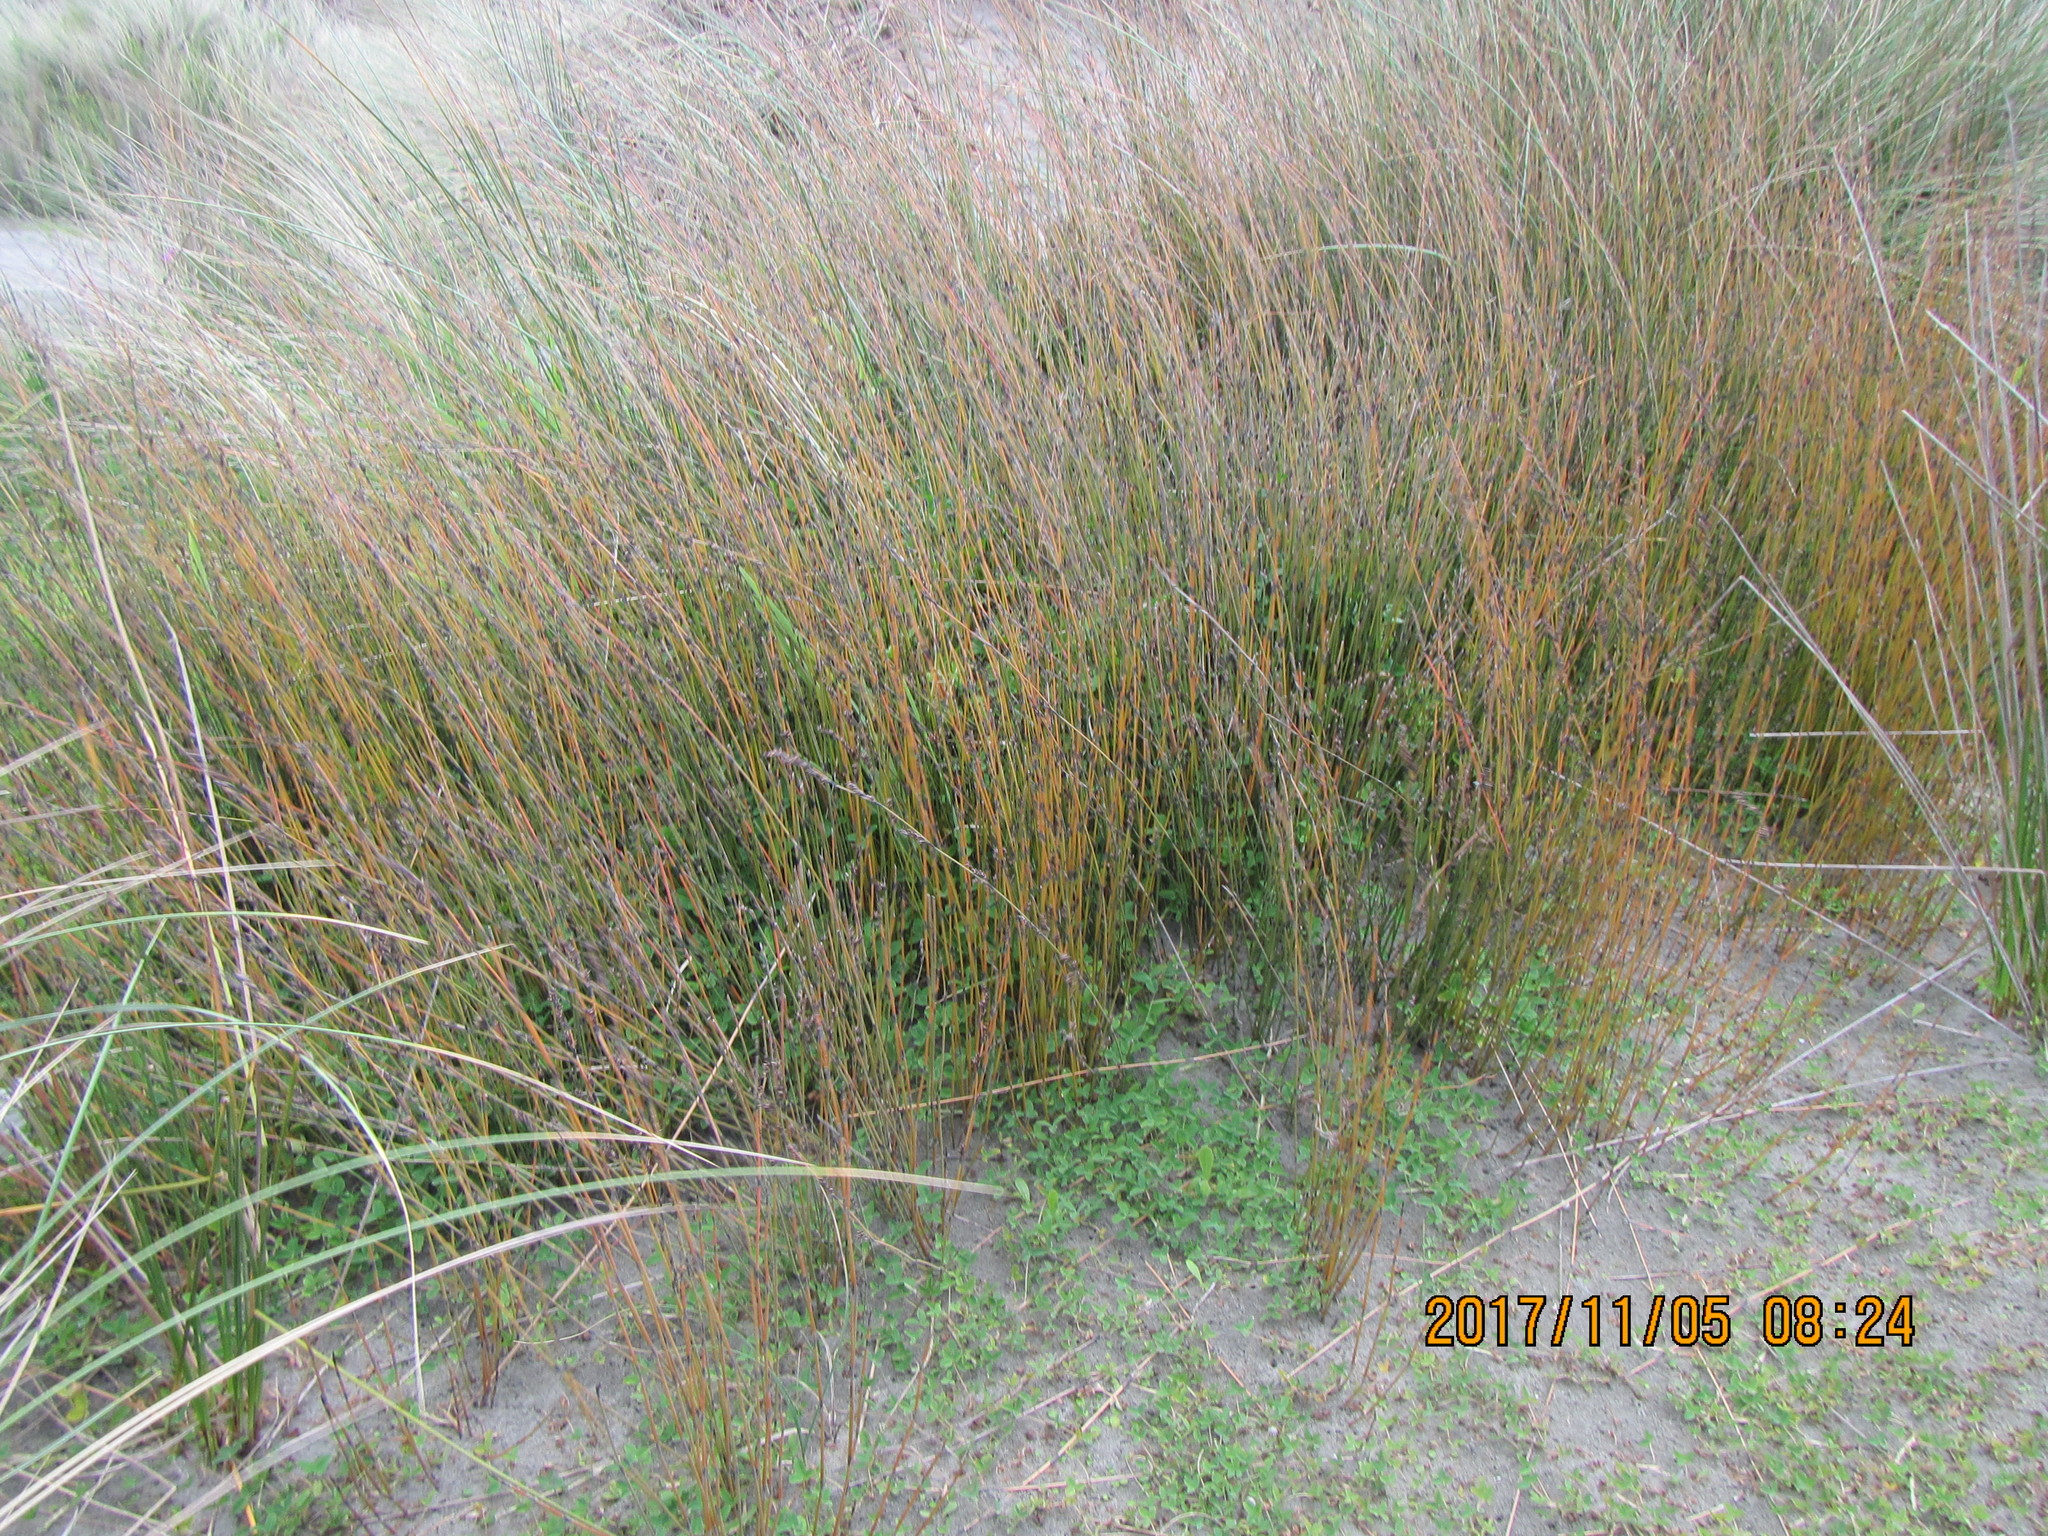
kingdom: Plantae
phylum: Tracheophyta
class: Liliopsida
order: Poales
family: Restionaceae
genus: Apodasmia
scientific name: Apodasmia similis
